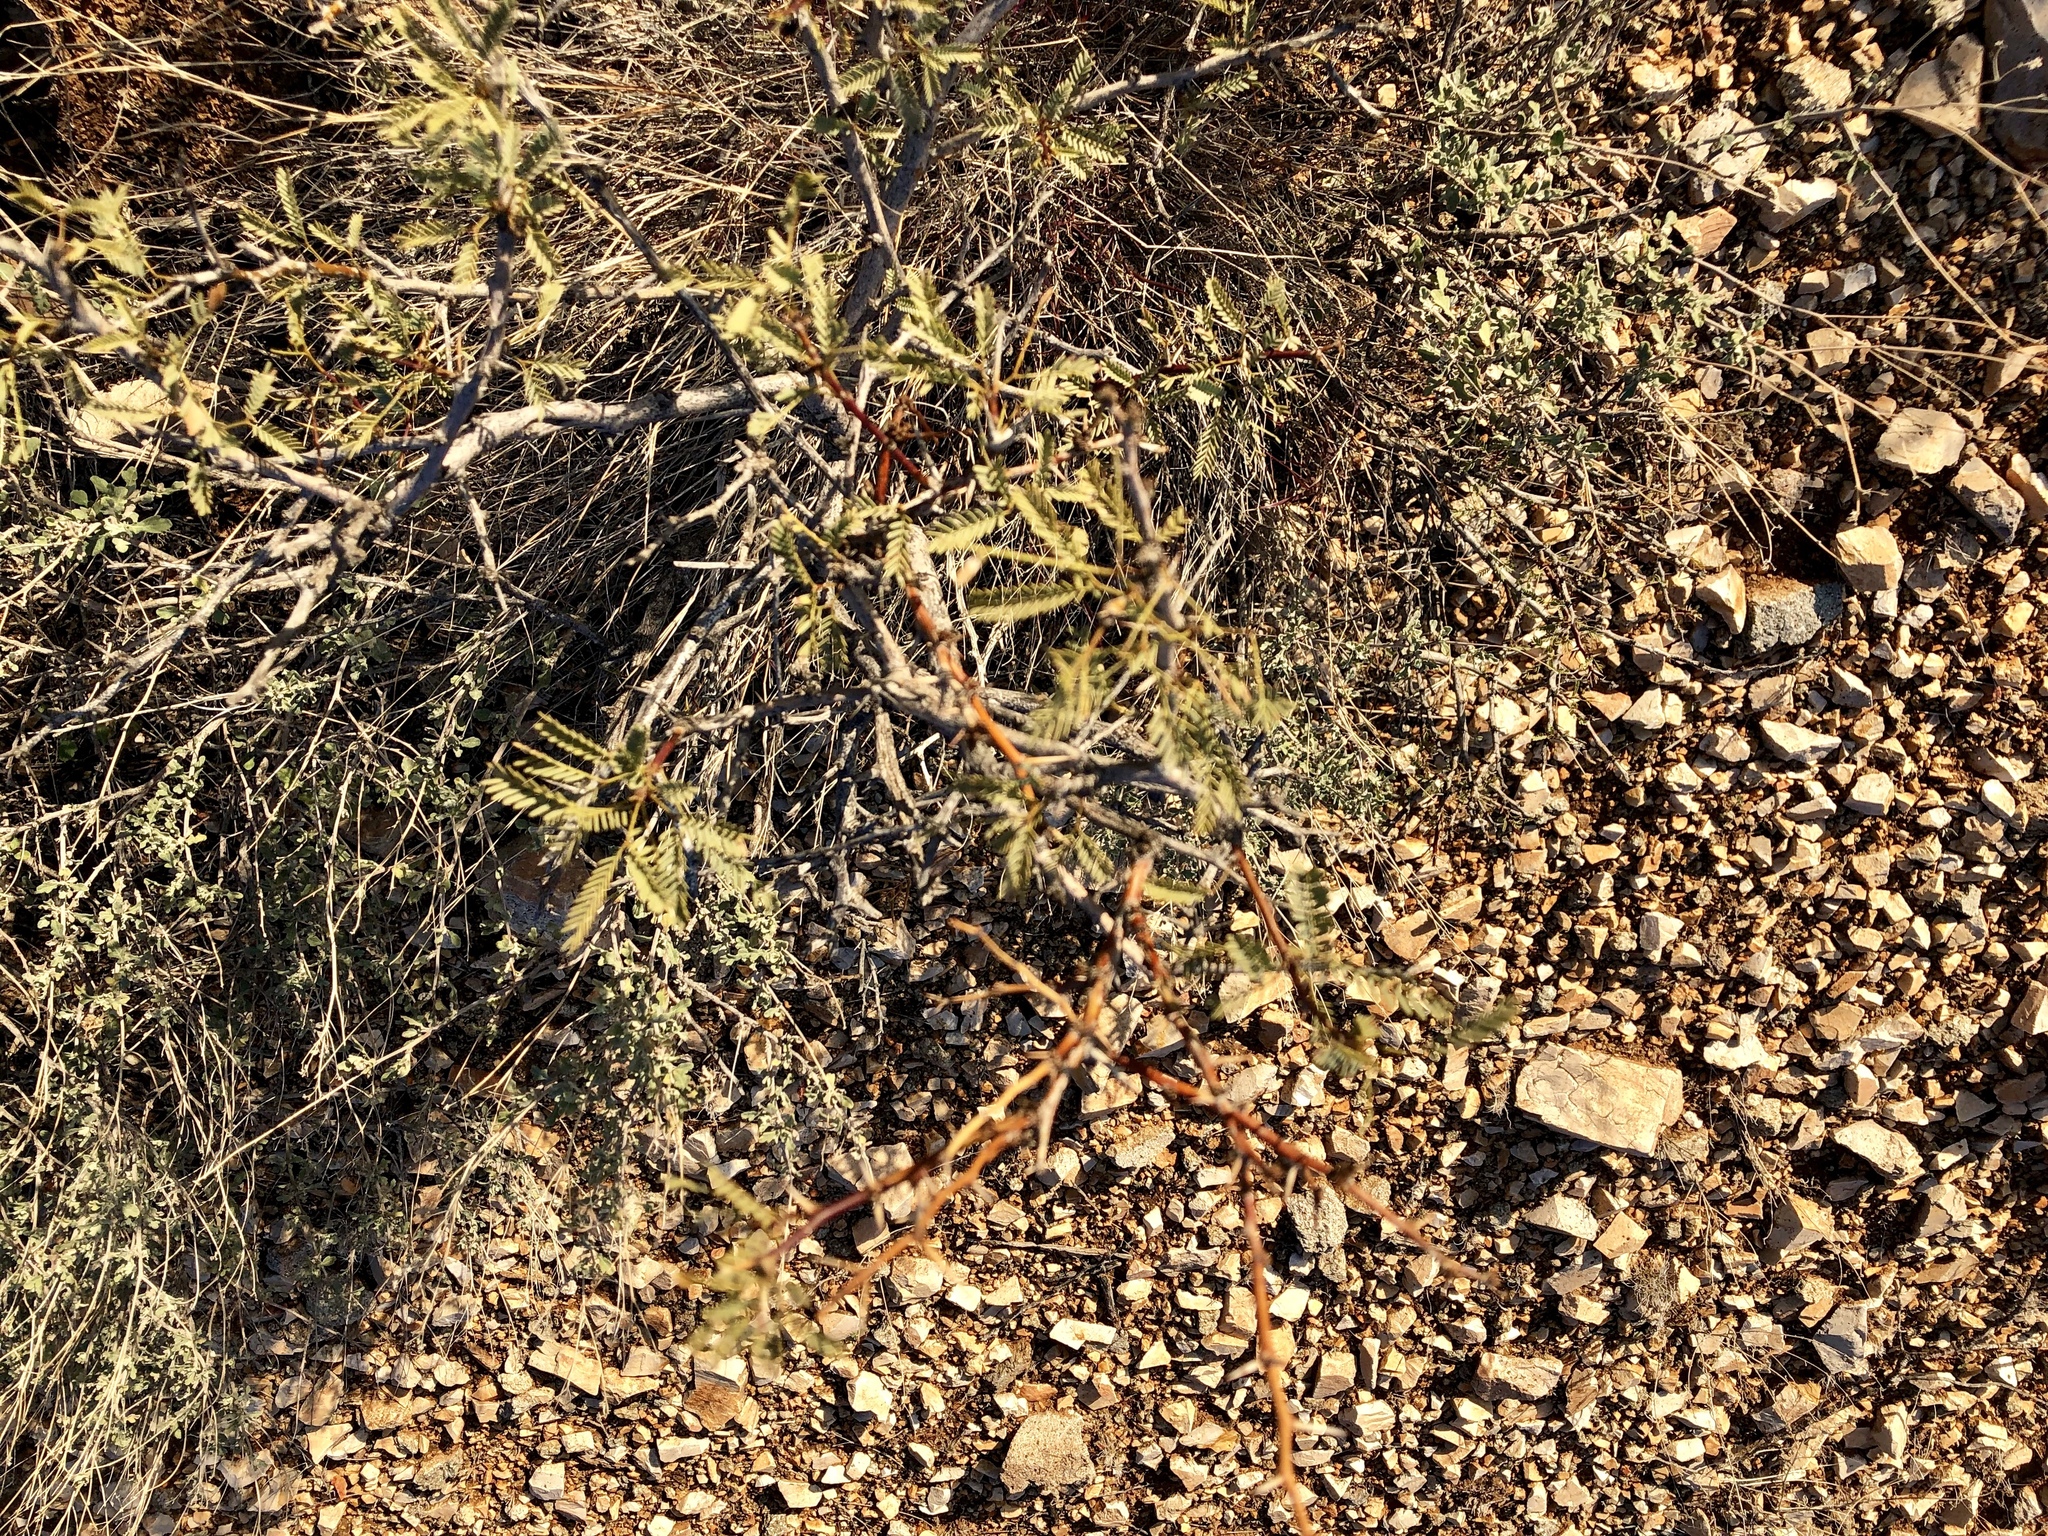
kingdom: Plantae
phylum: Tracheophyta
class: Magnoliopsida
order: Fabales
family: Fabaceae
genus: Prosopis
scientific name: Prosopis glandulosa
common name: Honey mesquite
